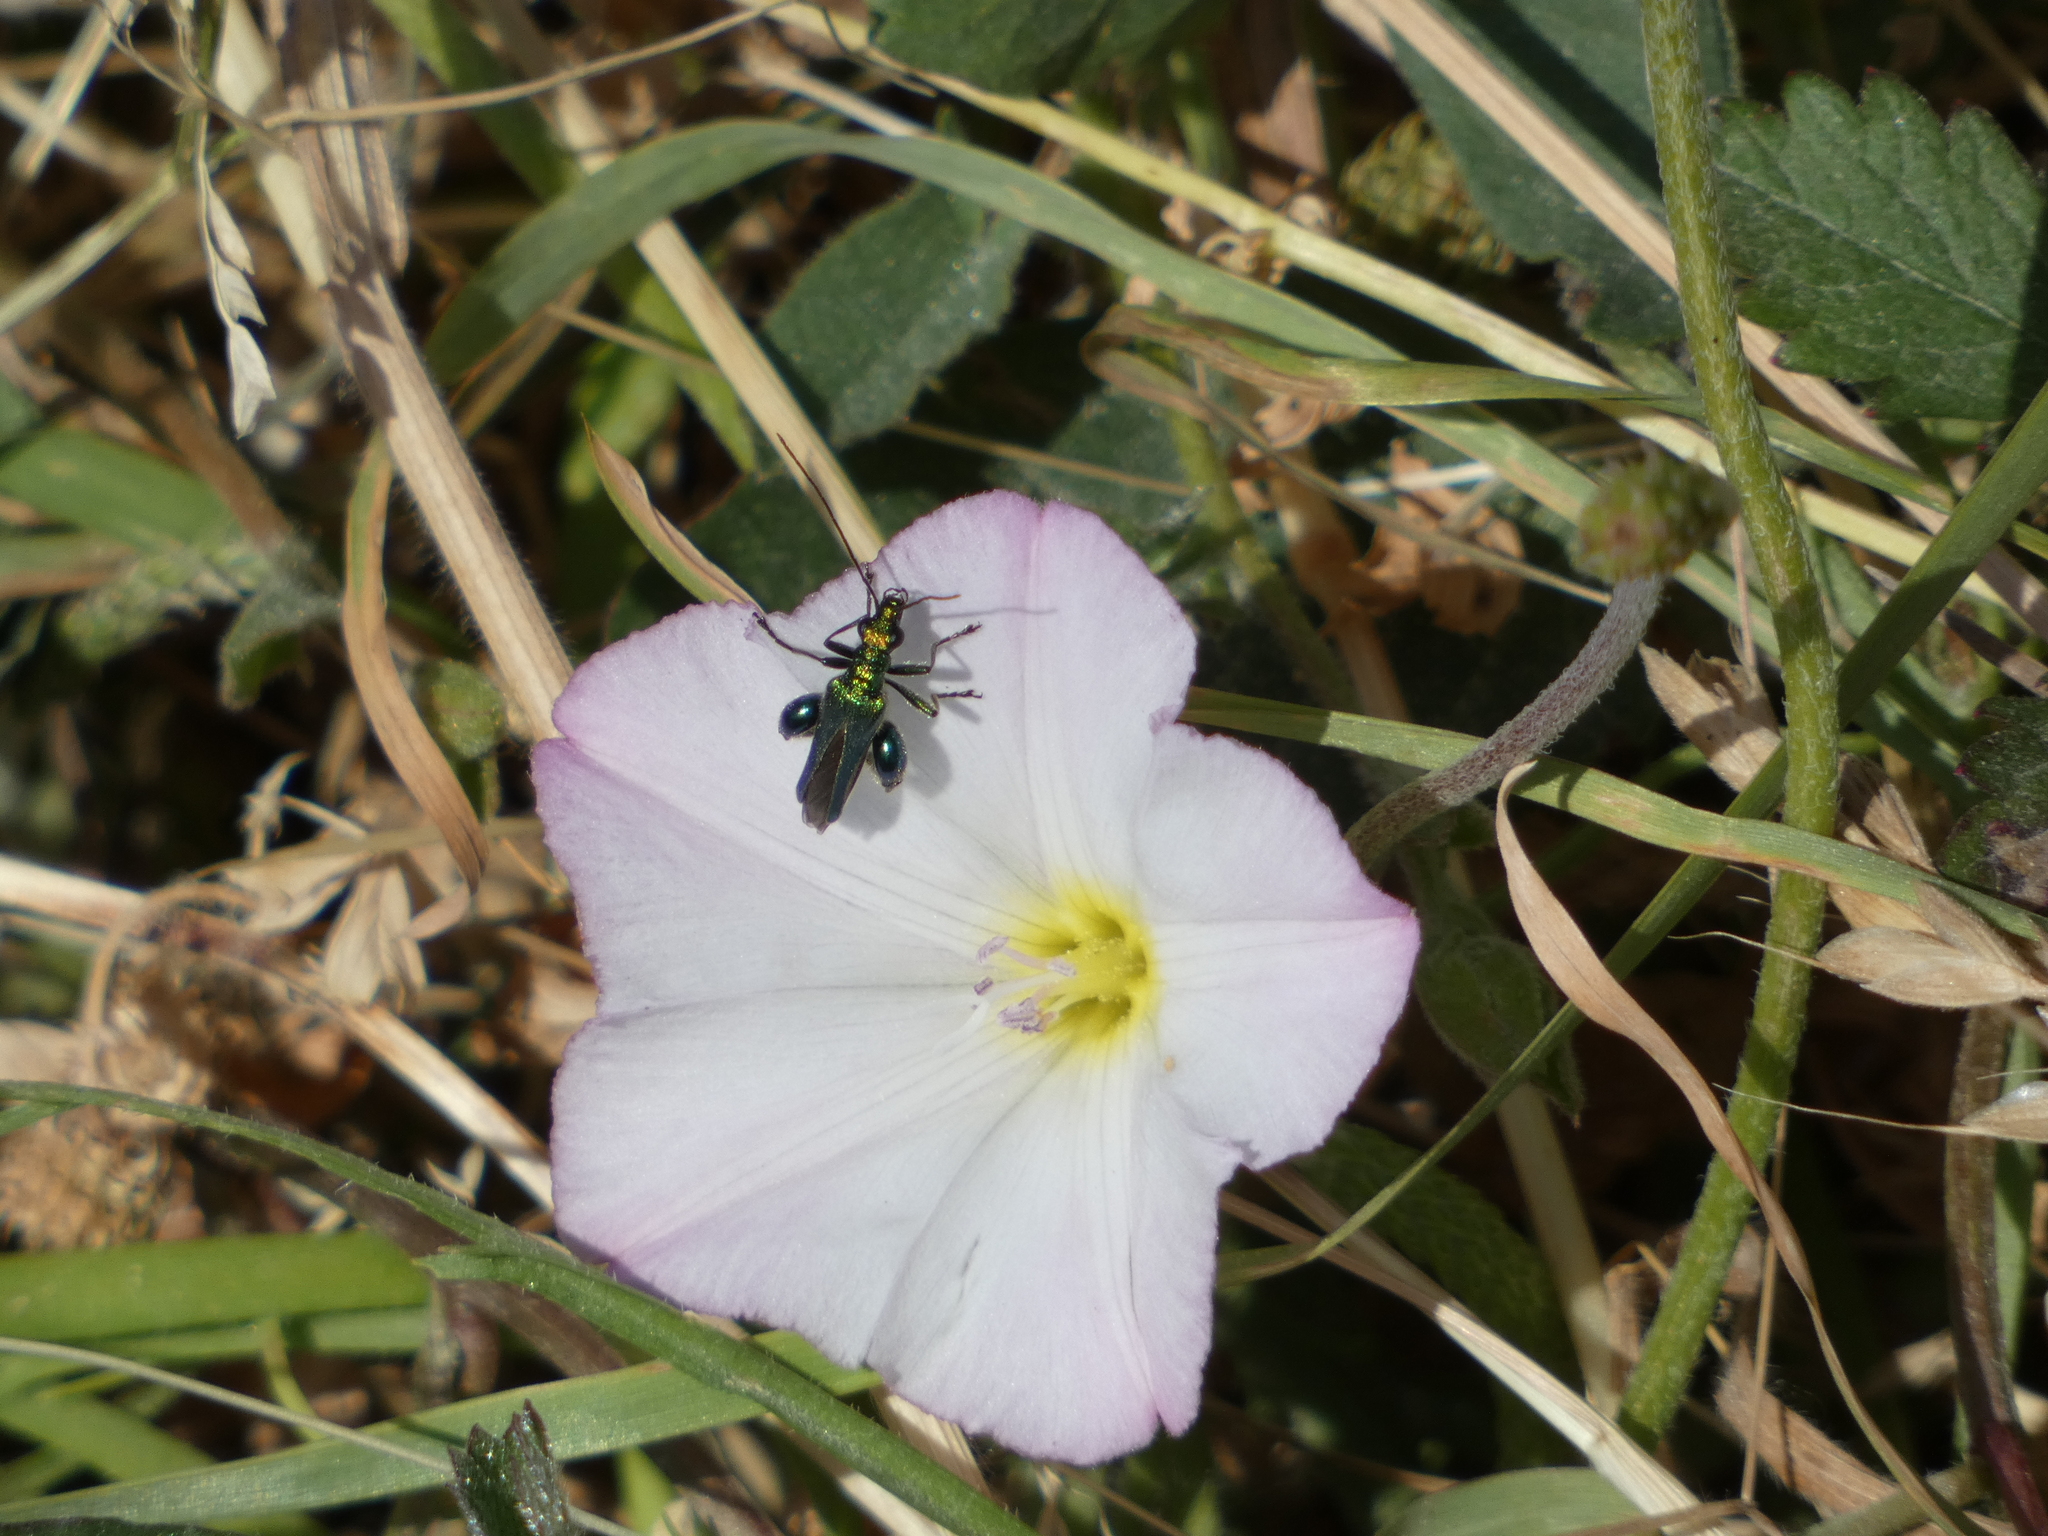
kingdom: Animalia
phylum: Arthropoda
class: Insecta
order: Coleoptera
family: Oedemeridae
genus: Oedemera
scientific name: Oedemera nobilis
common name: Swollen-thighed beetle
